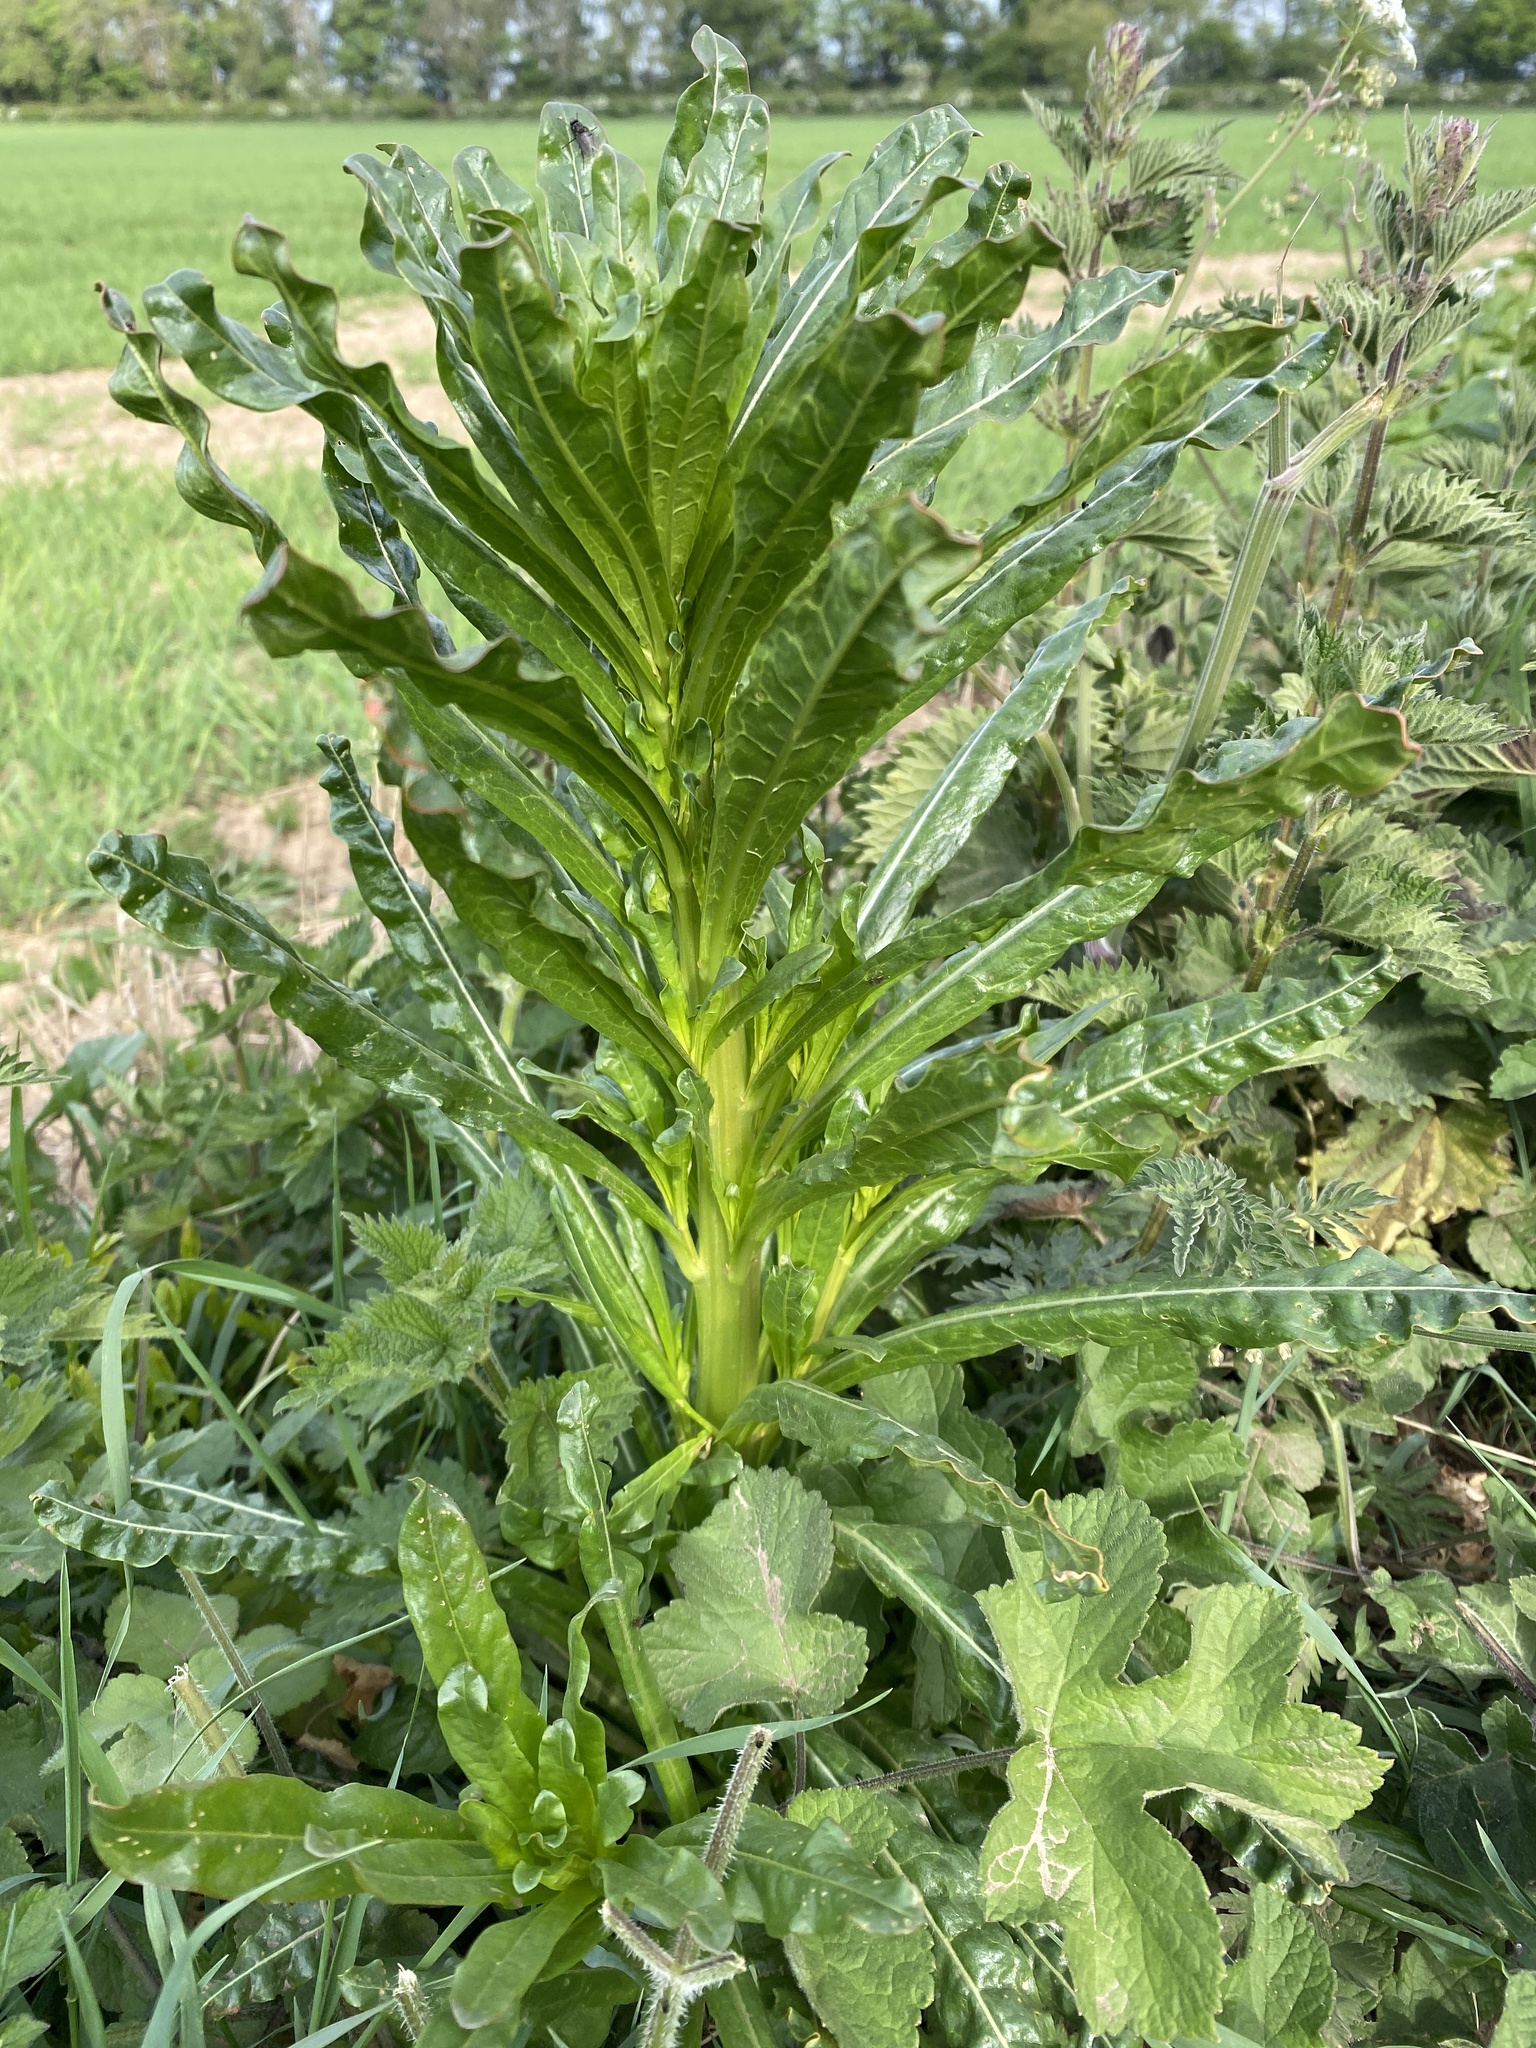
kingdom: Plantae
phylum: Tracheophyta
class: Magnoliopsida
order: Brassicales
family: Resedaceae
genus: Reseda
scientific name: Reseda luteola
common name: Weld
